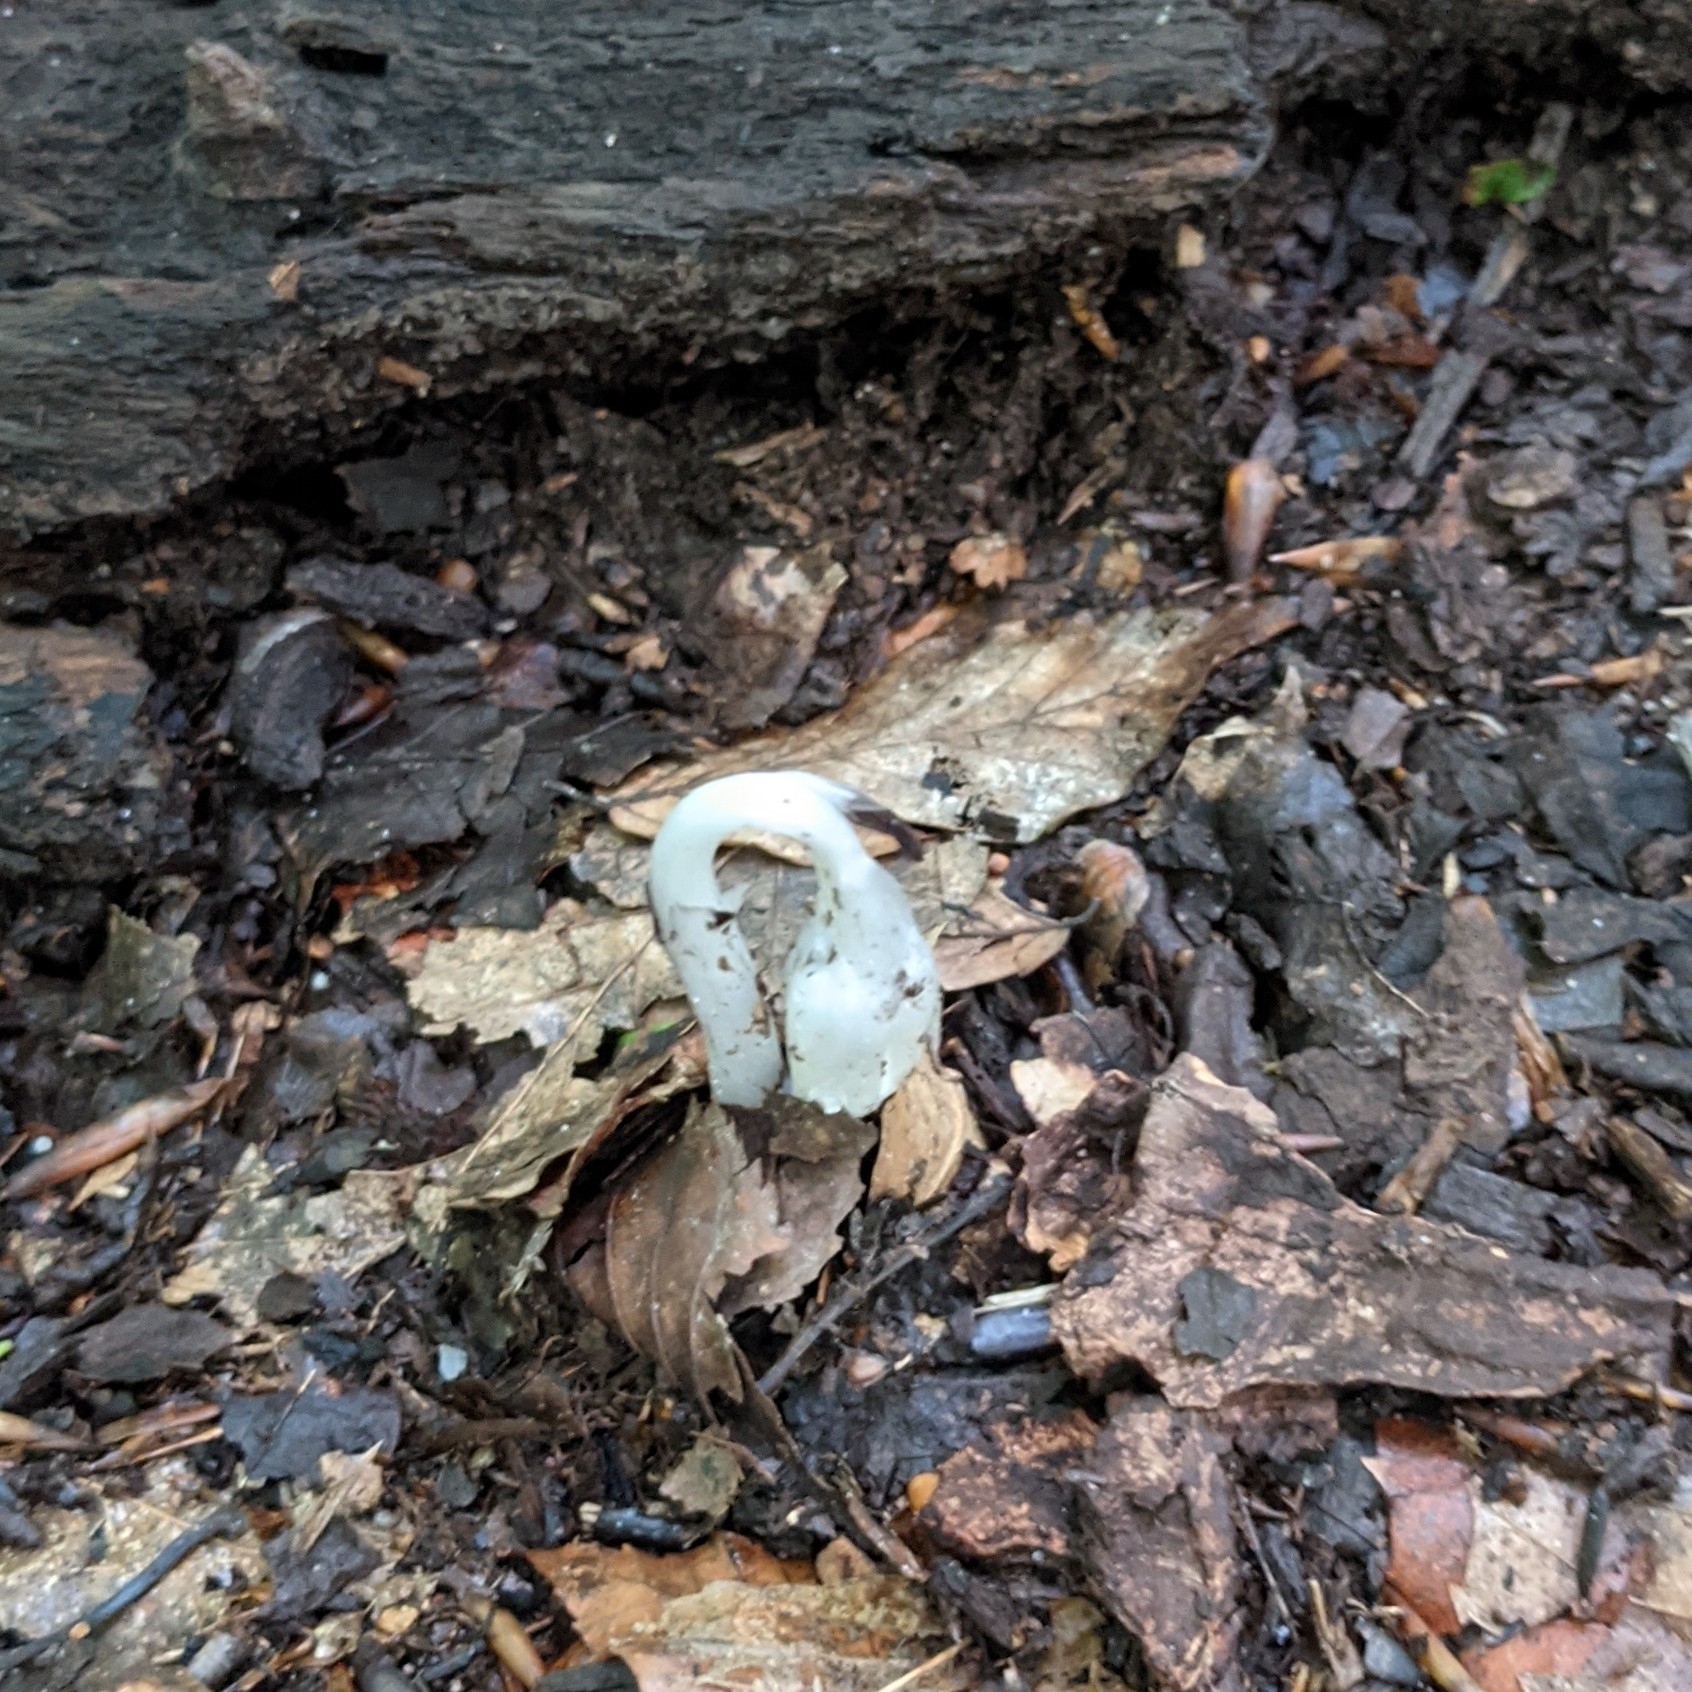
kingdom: Plantae
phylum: Tracheophyta
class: Magnoliopsida
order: Ericales
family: Ericaceae
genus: Monotropa
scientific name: Monotropa uniflora
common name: Convulsion root
